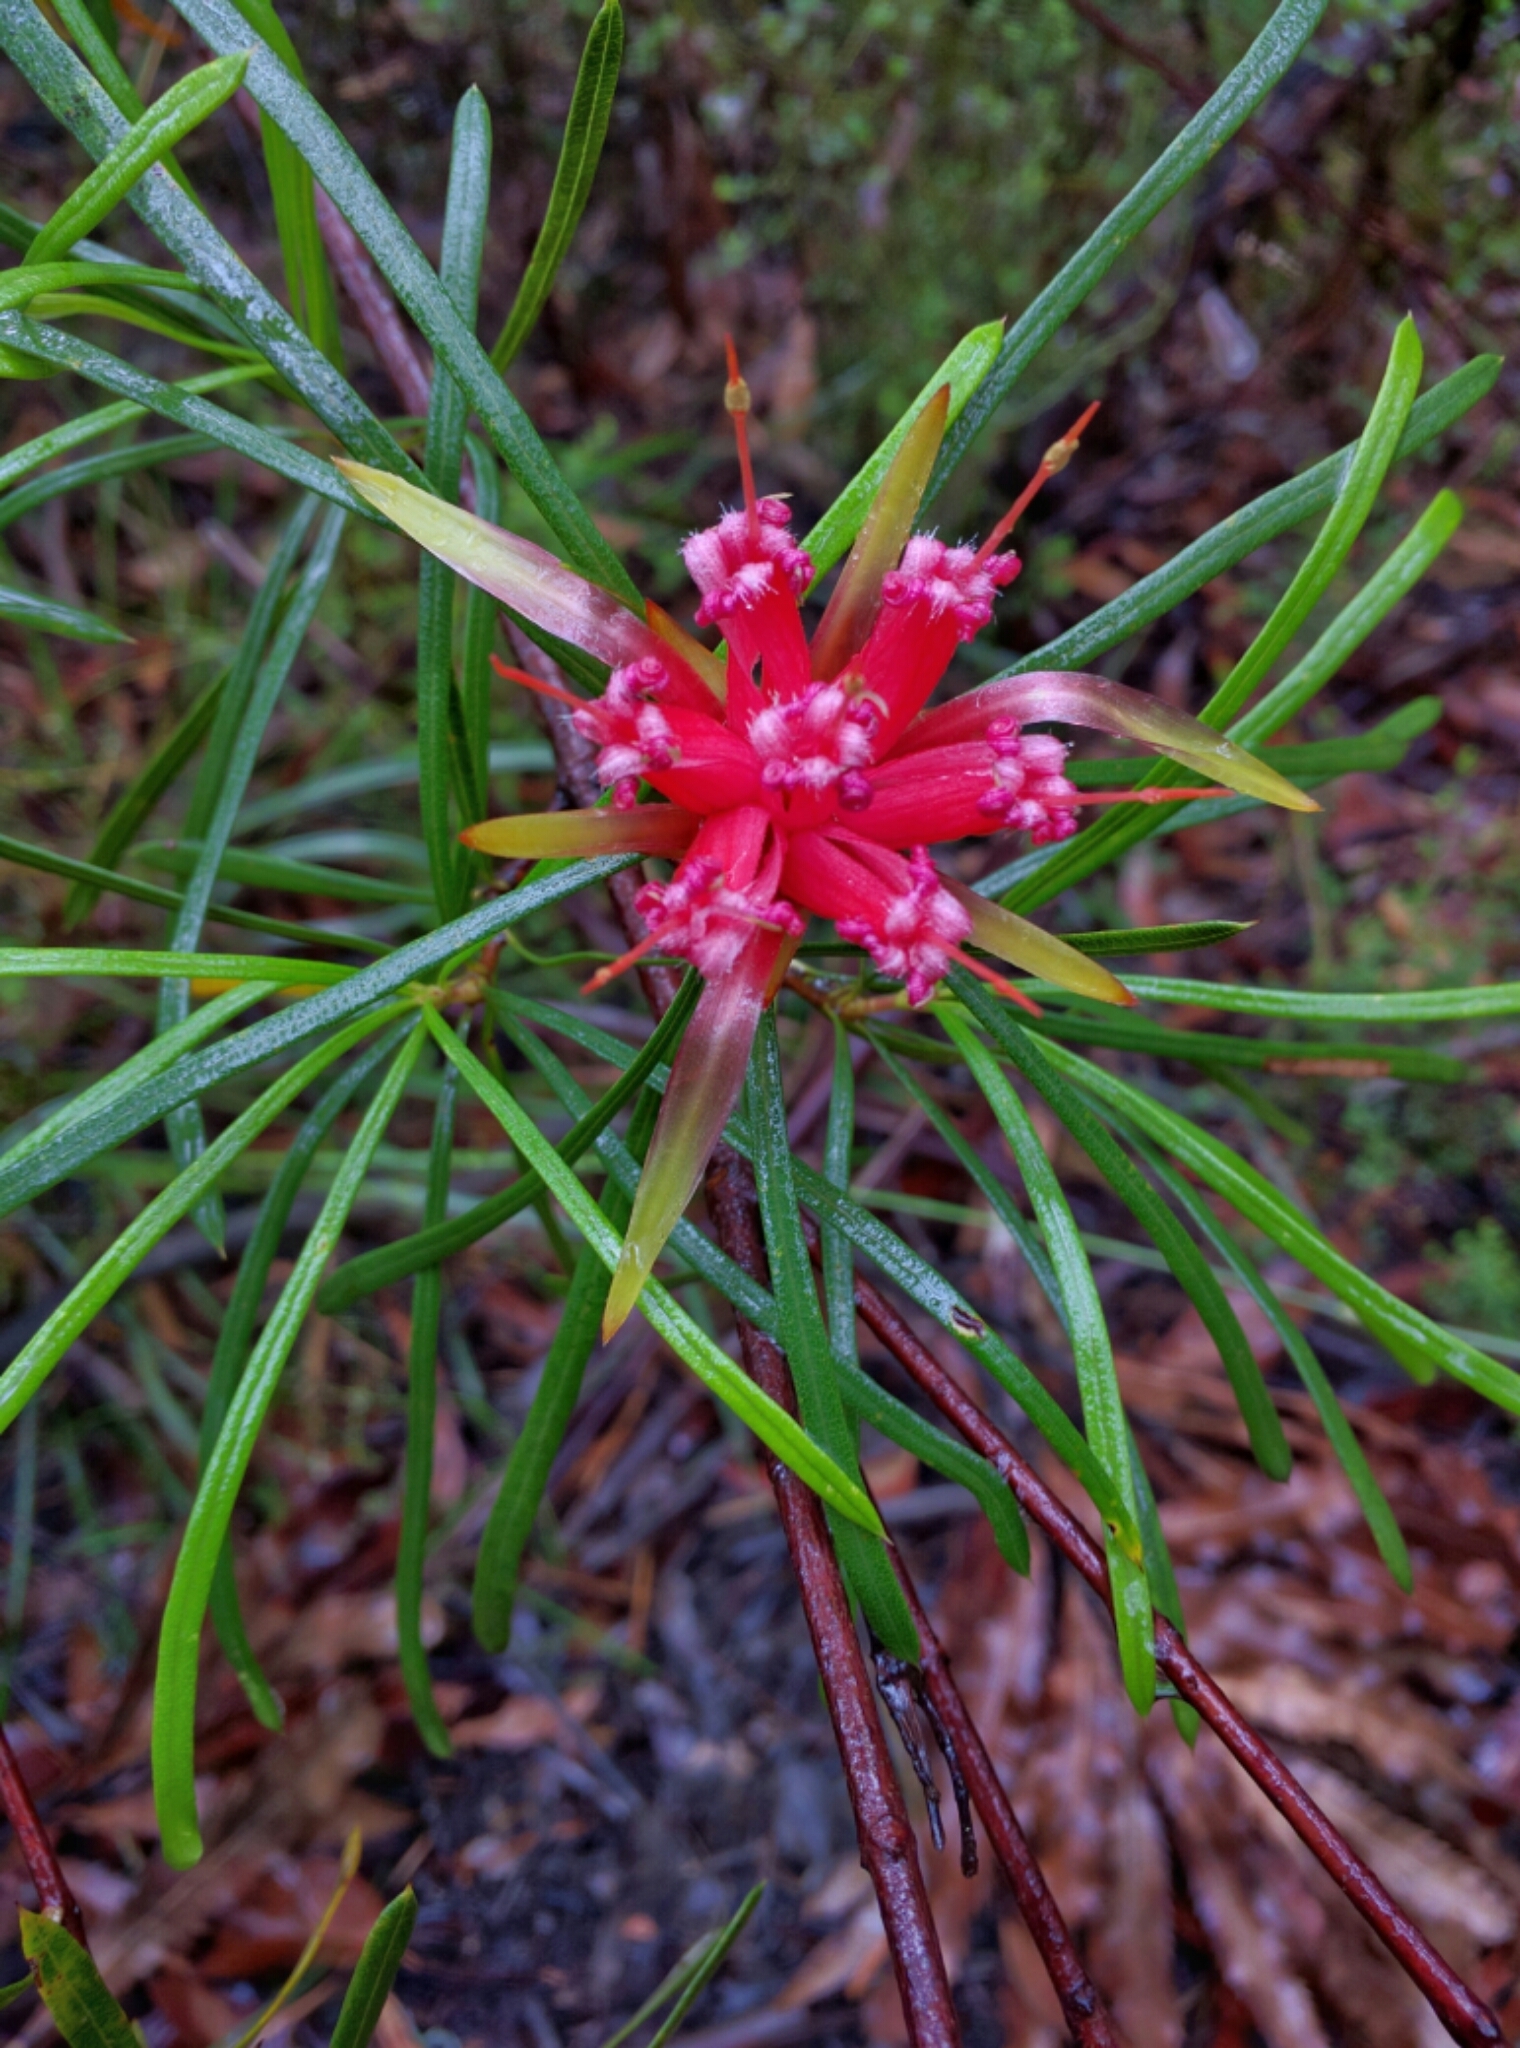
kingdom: Plantae
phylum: Tracheophyta
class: Magnoliopsida
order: Proteales
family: Proteaceae
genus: Lambertia
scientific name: Lambertia formosa
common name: Mountain-devil
